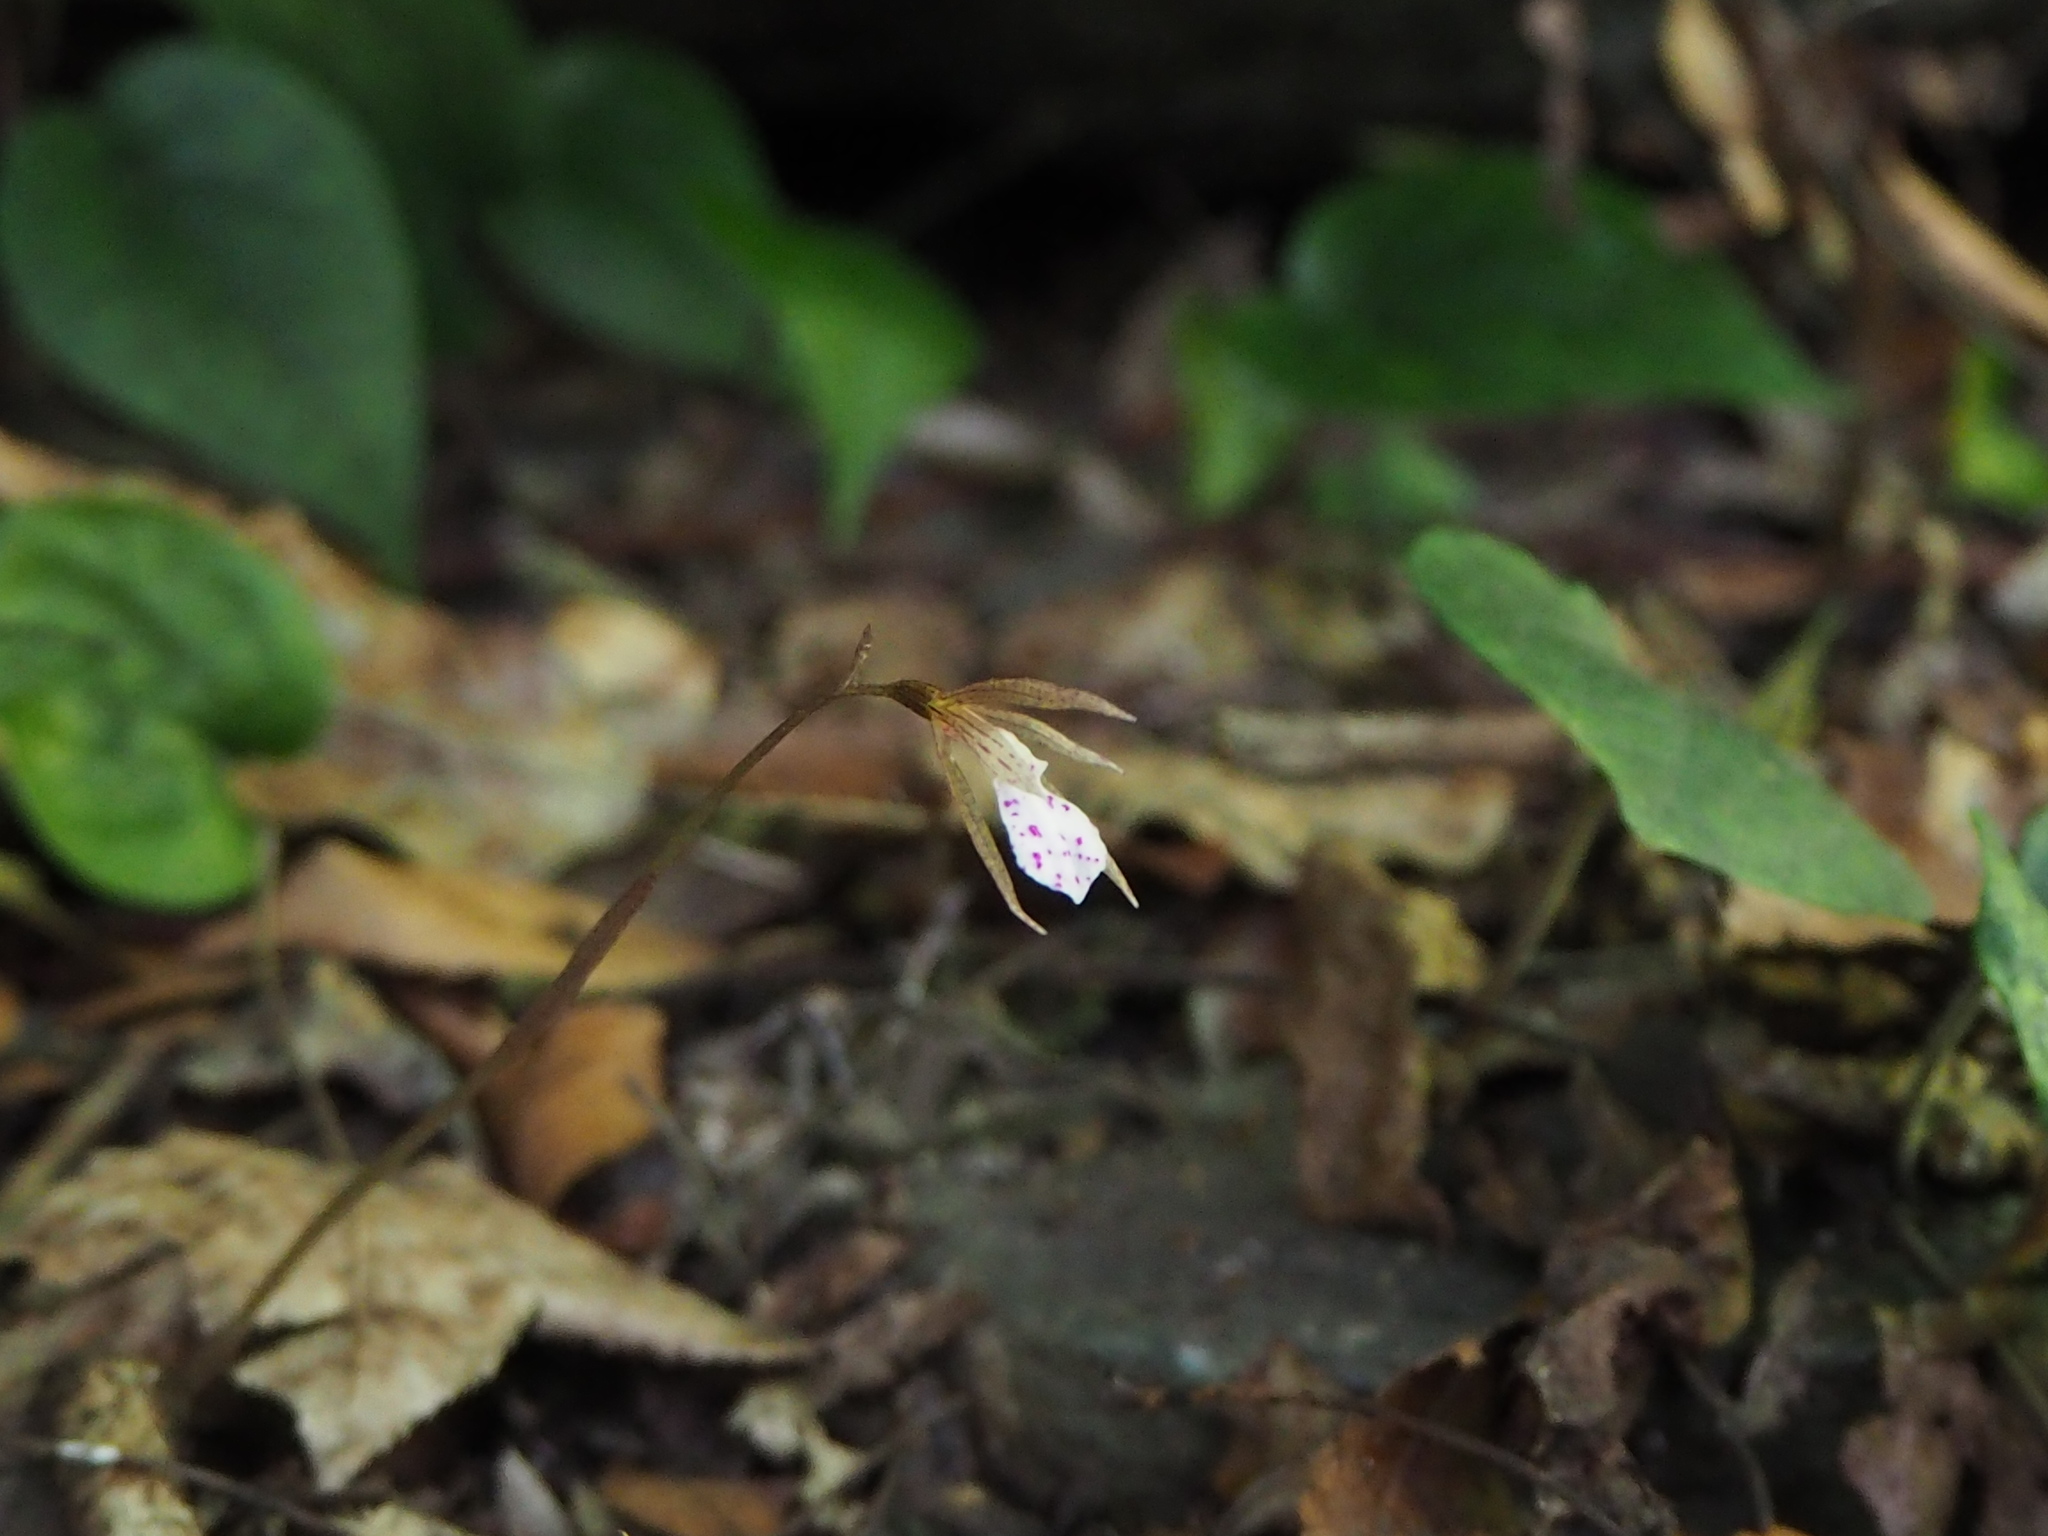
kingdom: Plantae
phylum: Tracheophyta
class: Liliopsida
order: Asparagales
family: Orchidaceae
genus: Nervilia
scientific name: Nervilia taiwaniana
